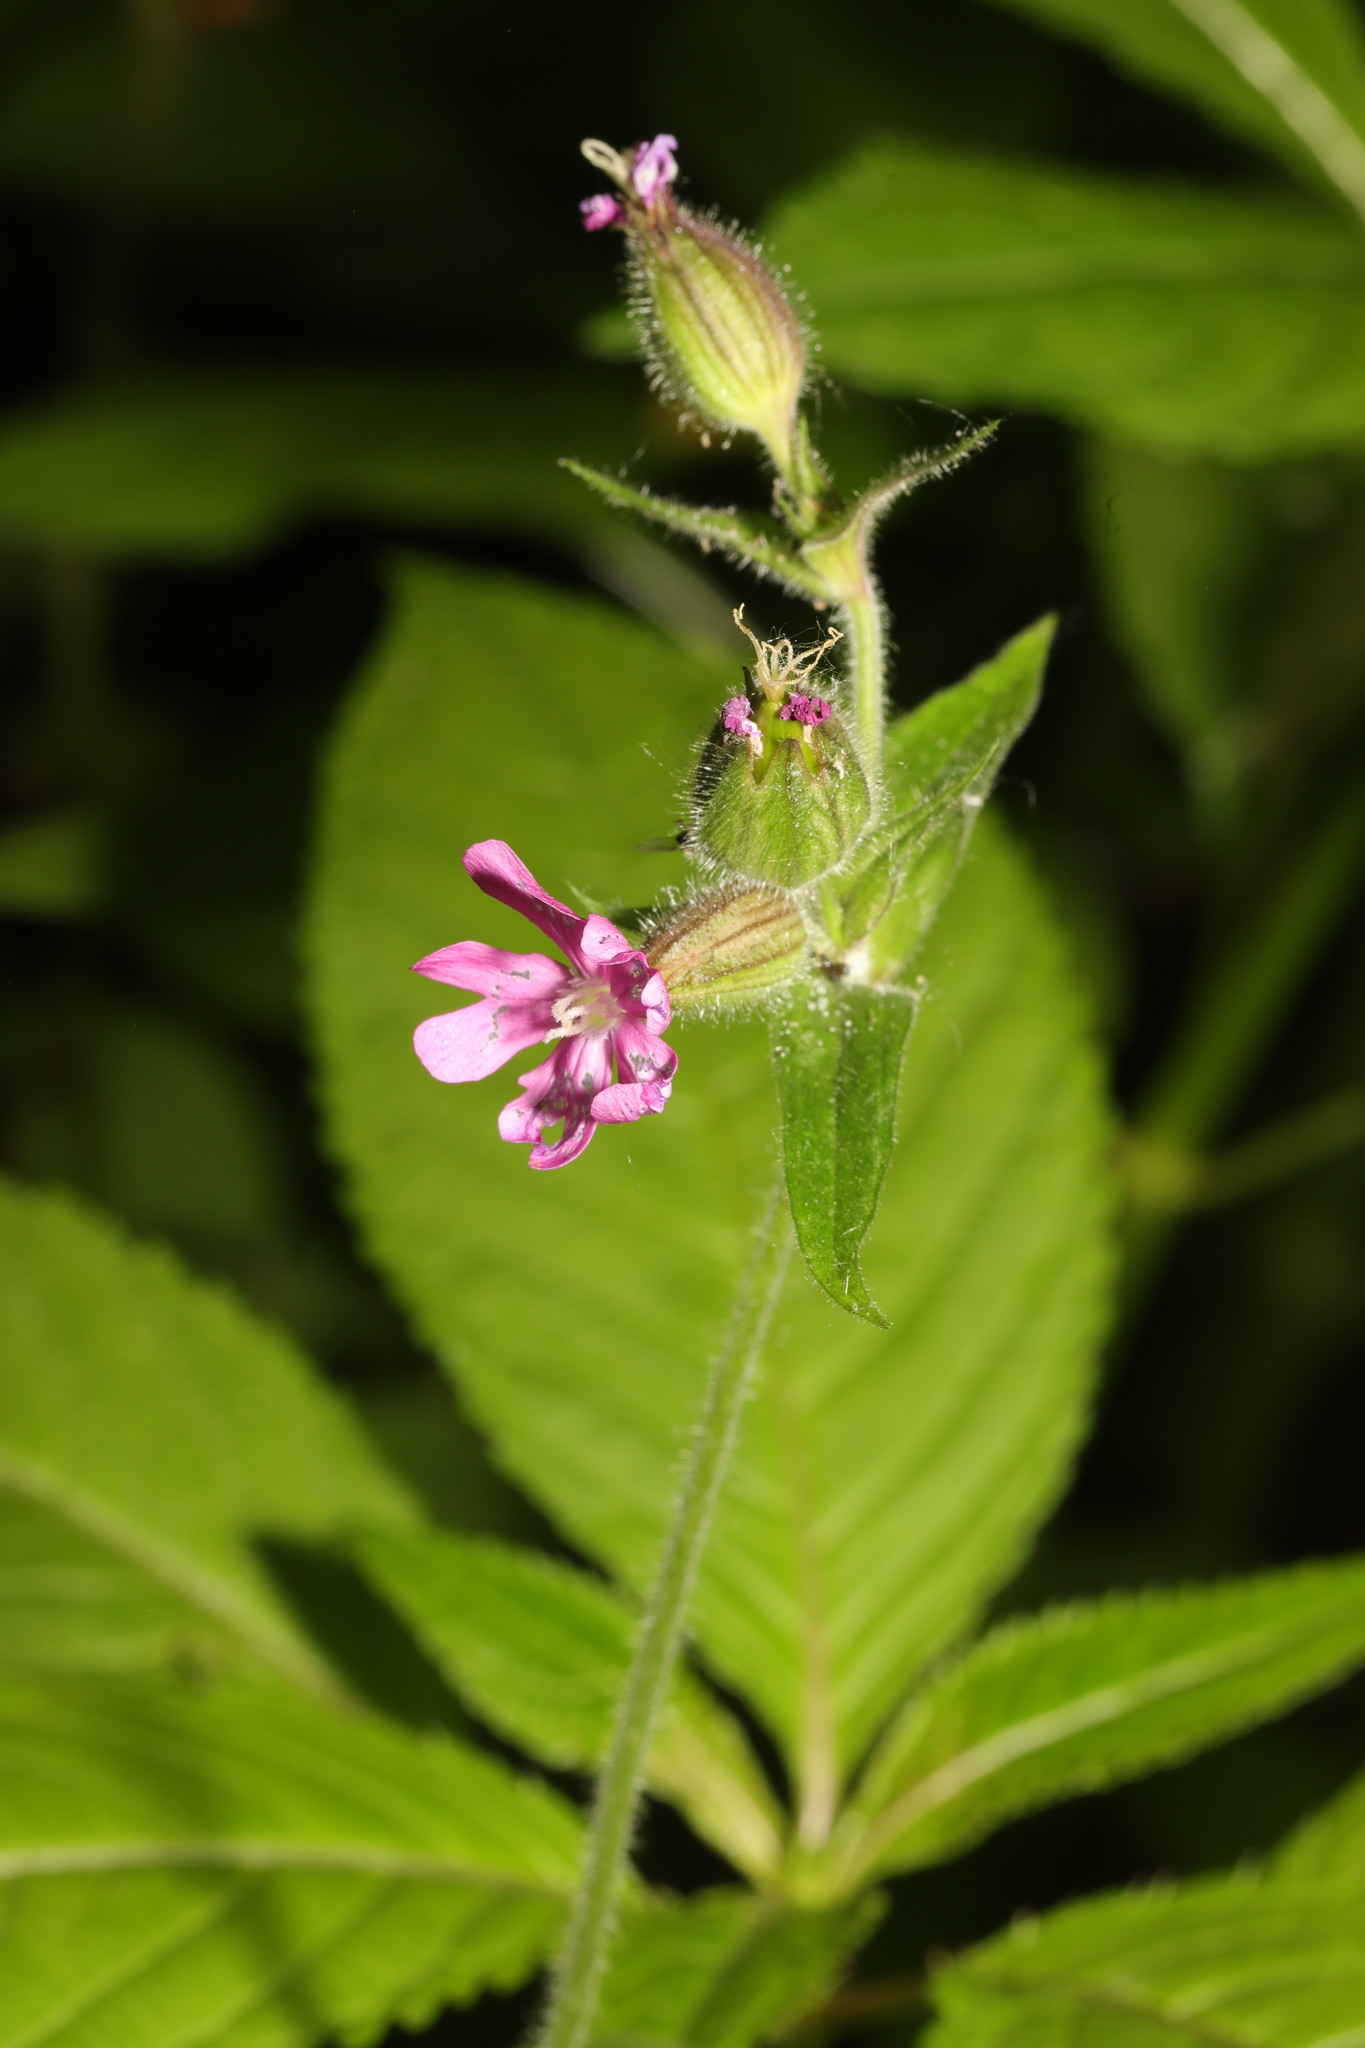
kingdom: Plantae
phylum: Tracheophyta
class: Magnoliopsida
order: Caryophyllales
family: Caryophyllaceae
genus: Silene
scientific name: Silene dioica
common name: Red campion
